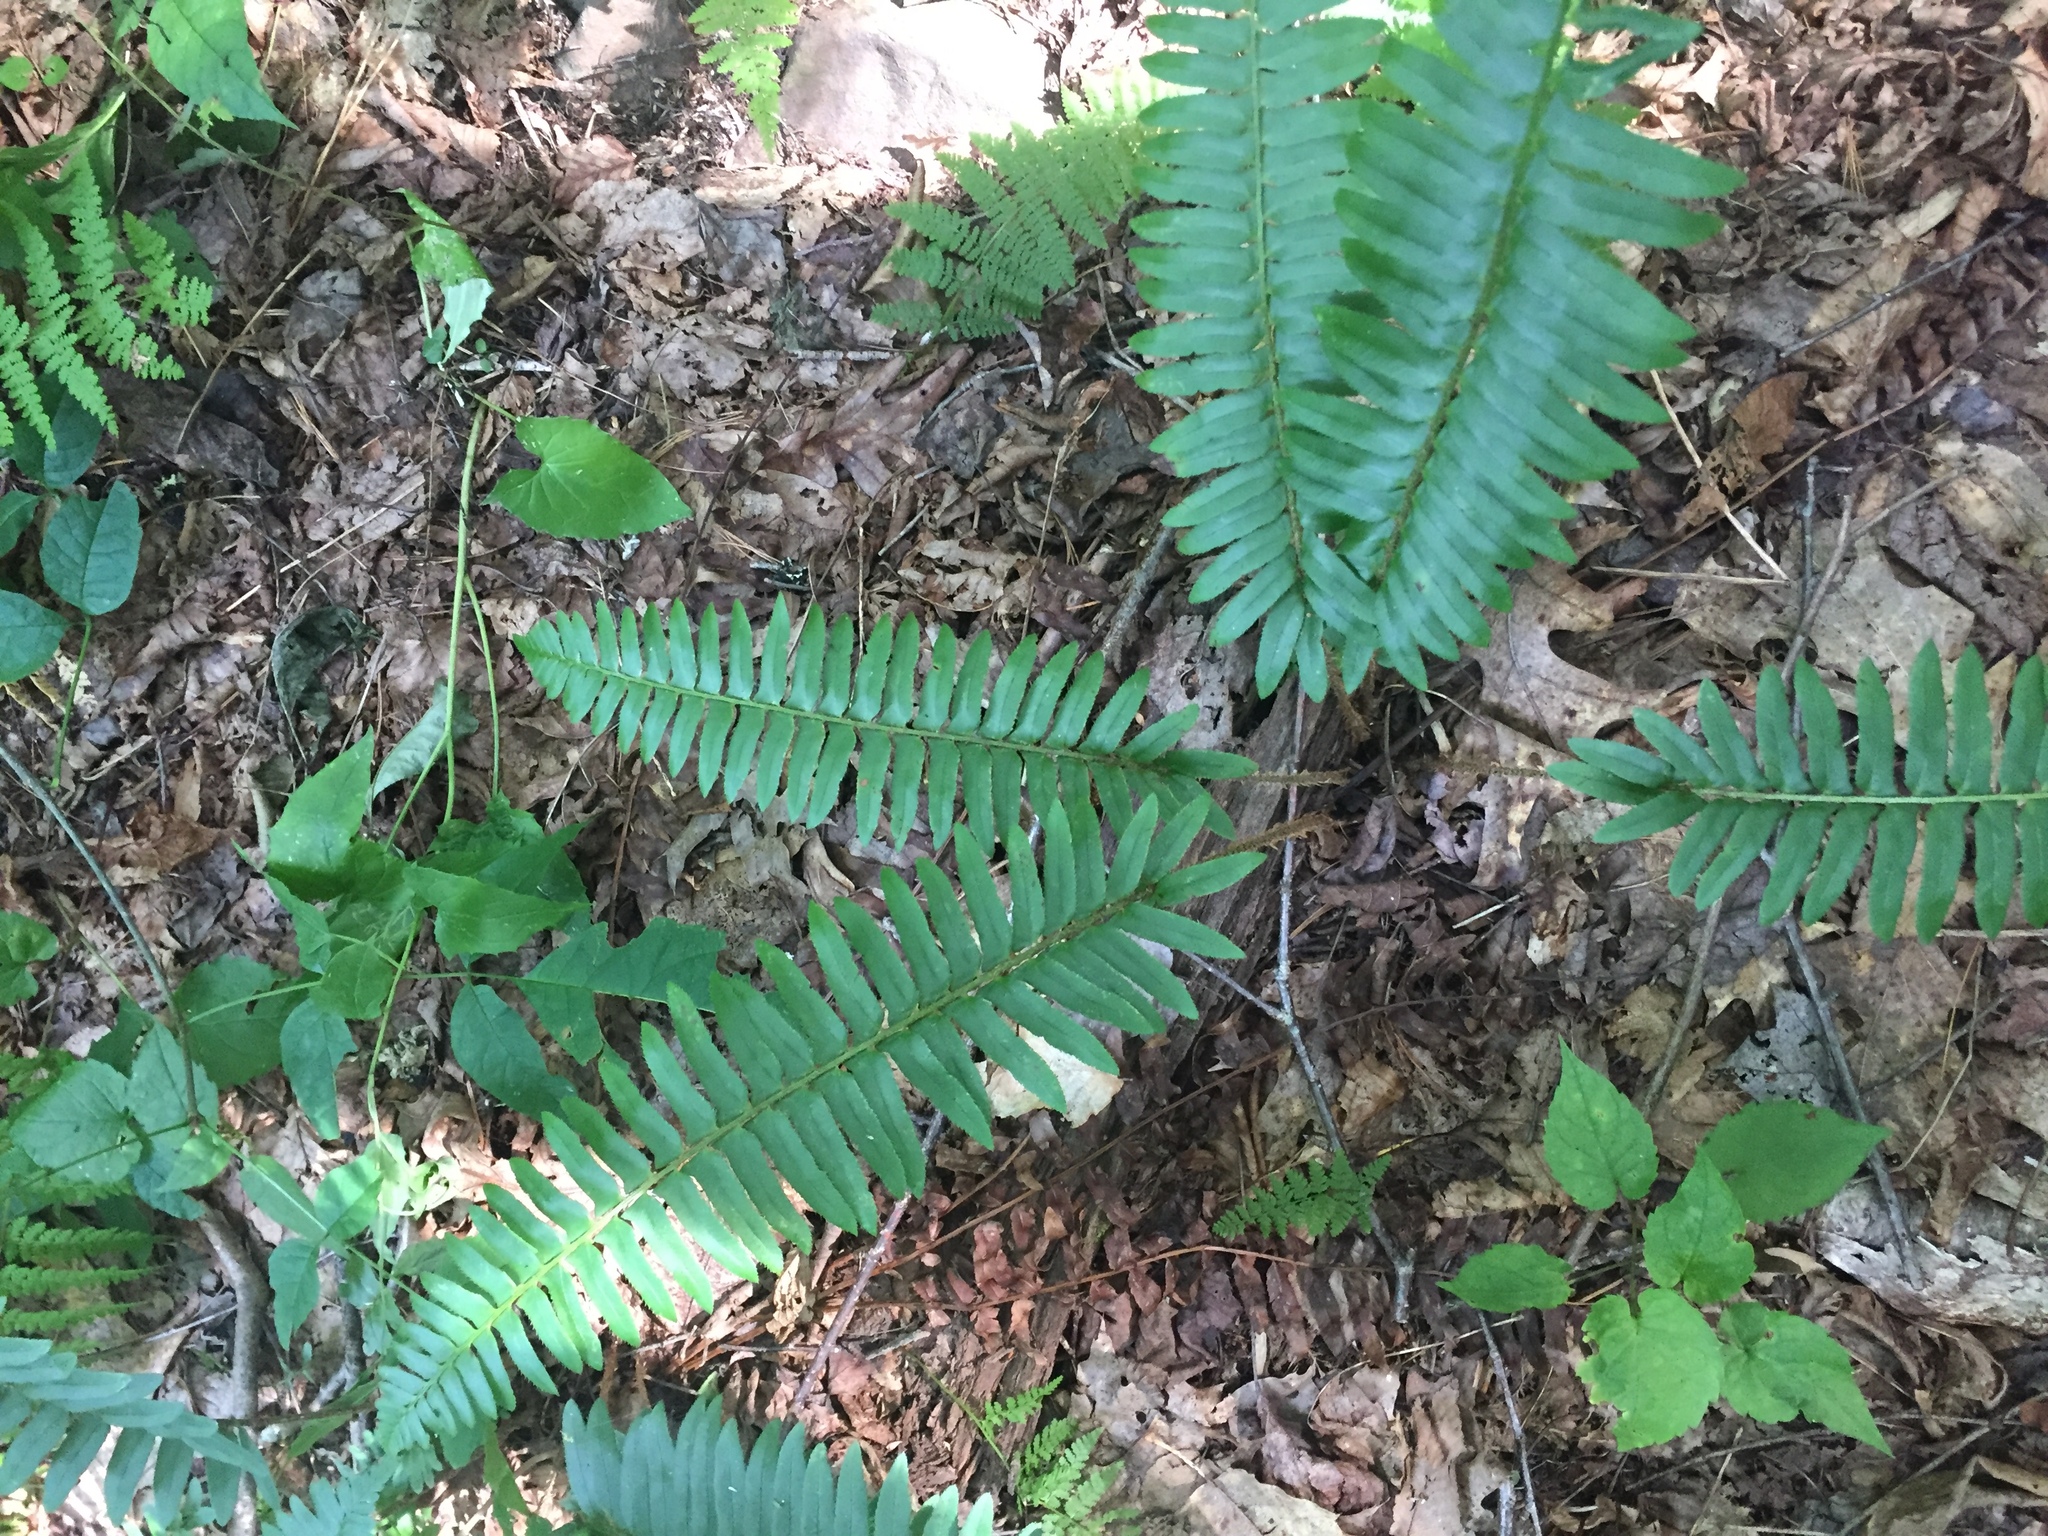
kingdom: Plantae
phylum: Tracheophyta
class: Polypodiopsida
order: Polypodiales
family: Dryopteridaceae
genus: Polystichum
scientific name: Polystichum acrostichoides
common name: Christmas fern
